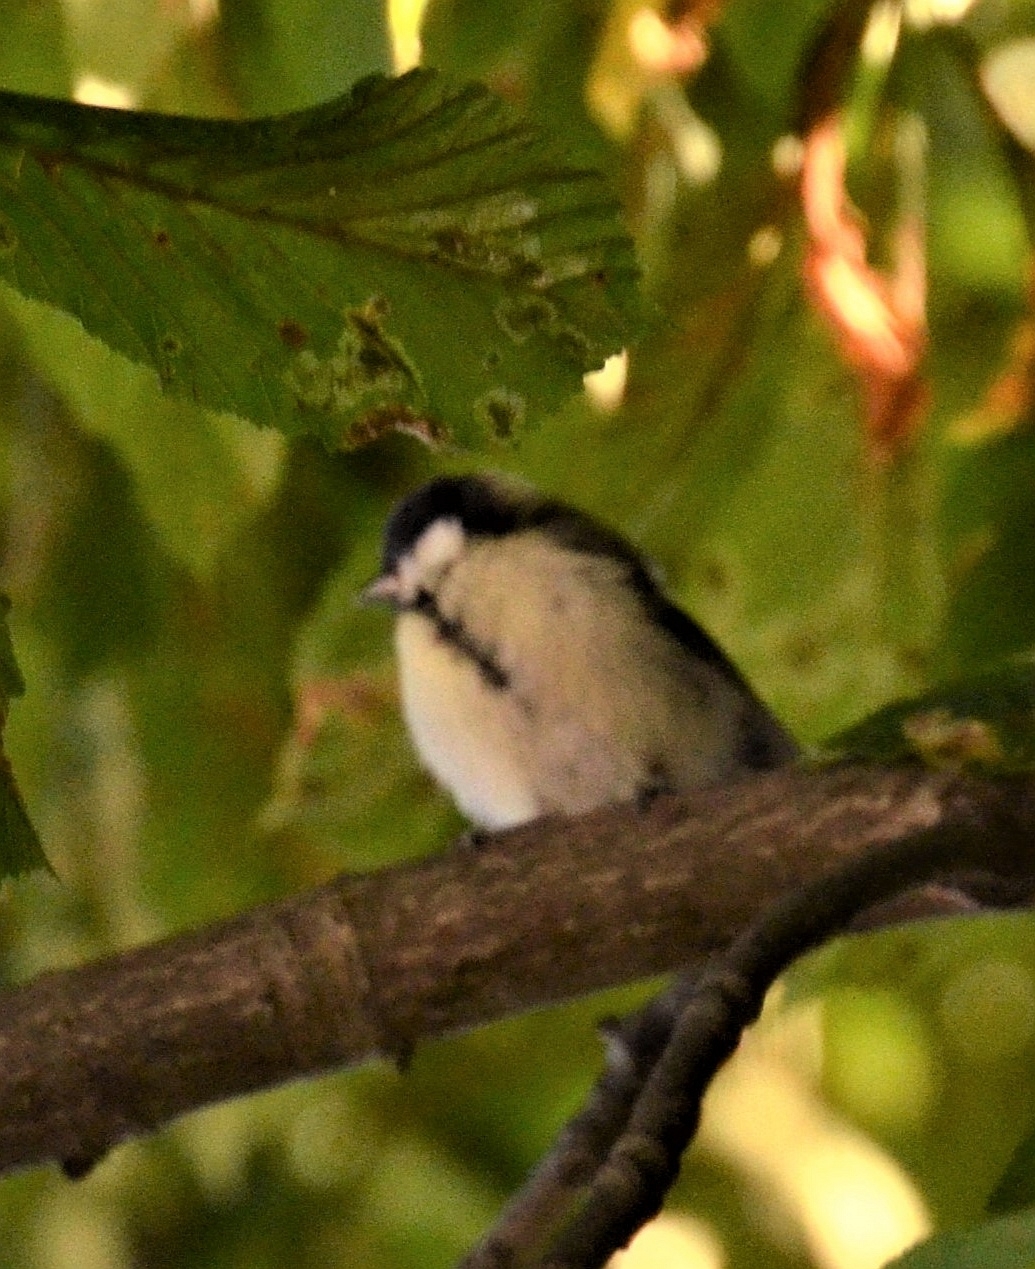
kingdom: Animalia
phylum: Chordata
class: Aves
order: Passeriformes
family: Paridae
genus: Parus
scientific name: Parus major
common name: Great tit
